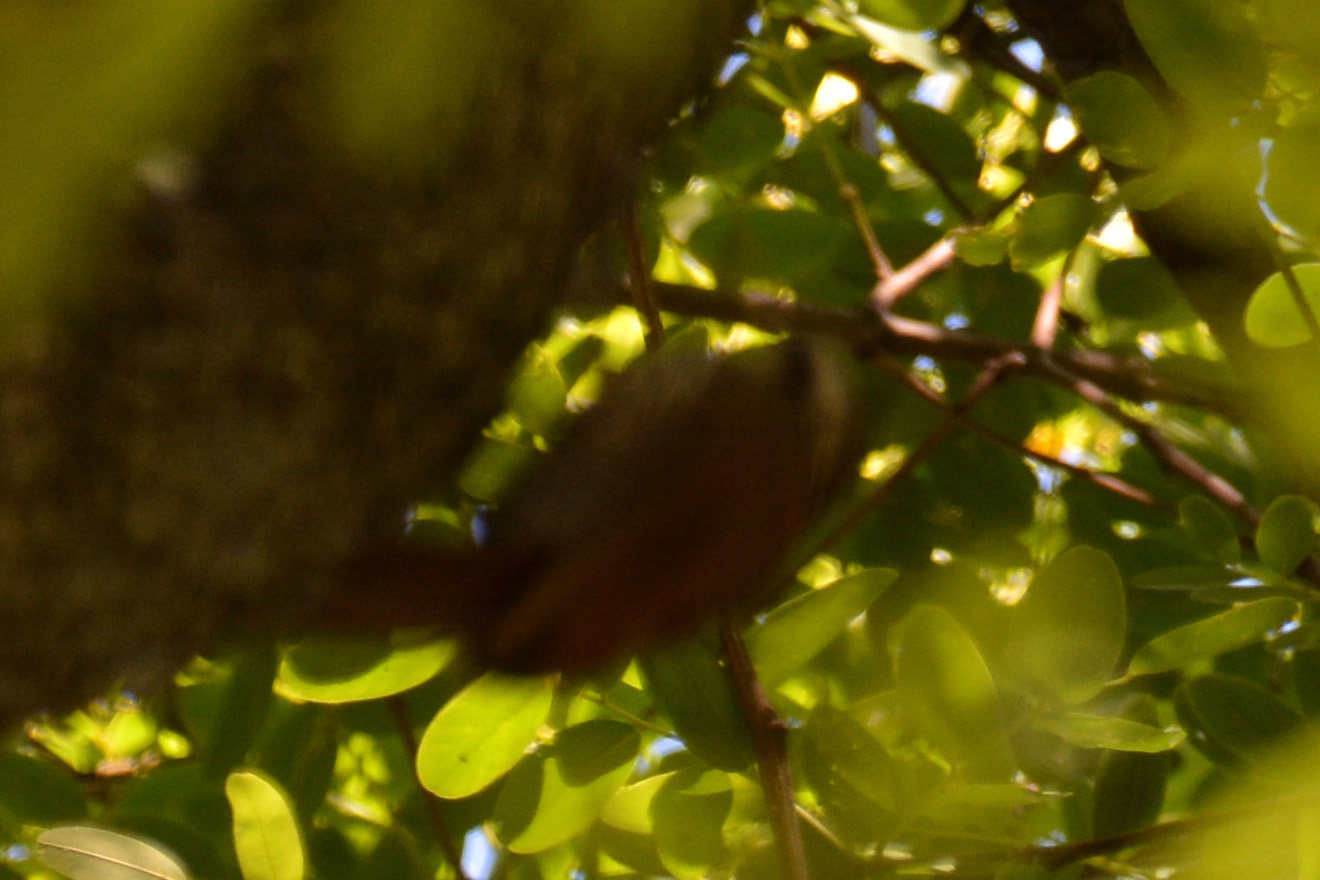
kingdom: Animalia
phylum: Chordata
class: Aves
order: Passeriformes
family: Furnariidae
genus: Lepidocolaptes
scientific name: Lepidocolaptes angustirostris
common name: Narrow-billed woodcreeper
